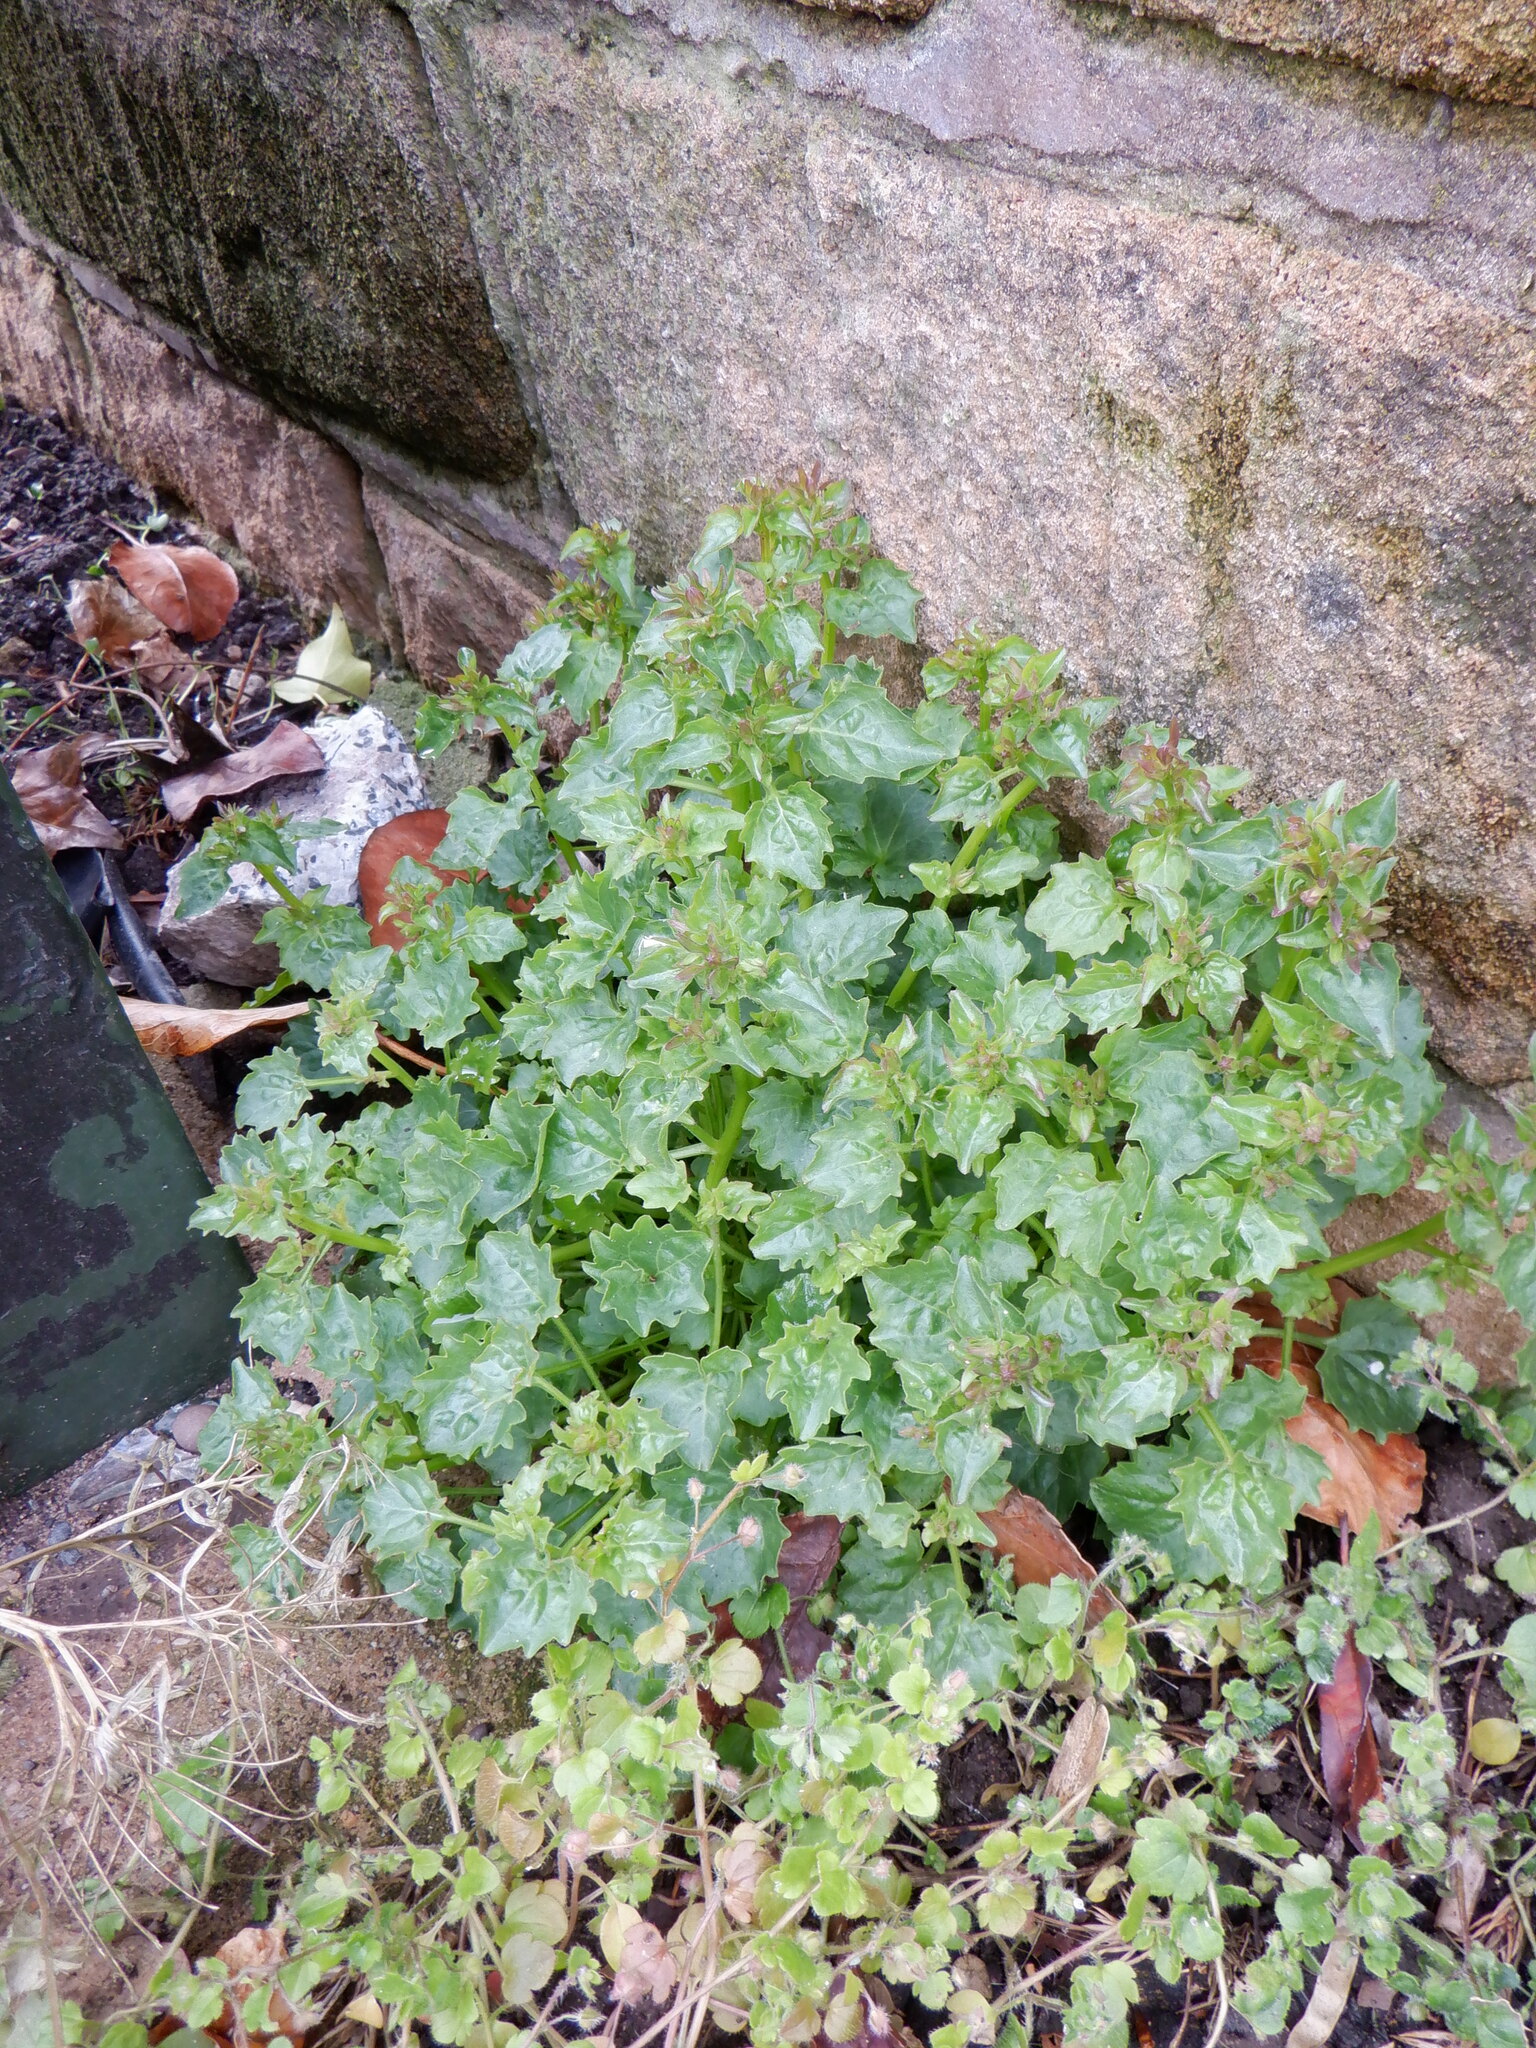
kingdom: Plantae
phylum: Tracheophyta
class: Magnoliopsida
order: Asterales
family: Campanulaceae
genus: Campanula
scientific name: Campanula portenschlagiana
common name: Adria bellflower
